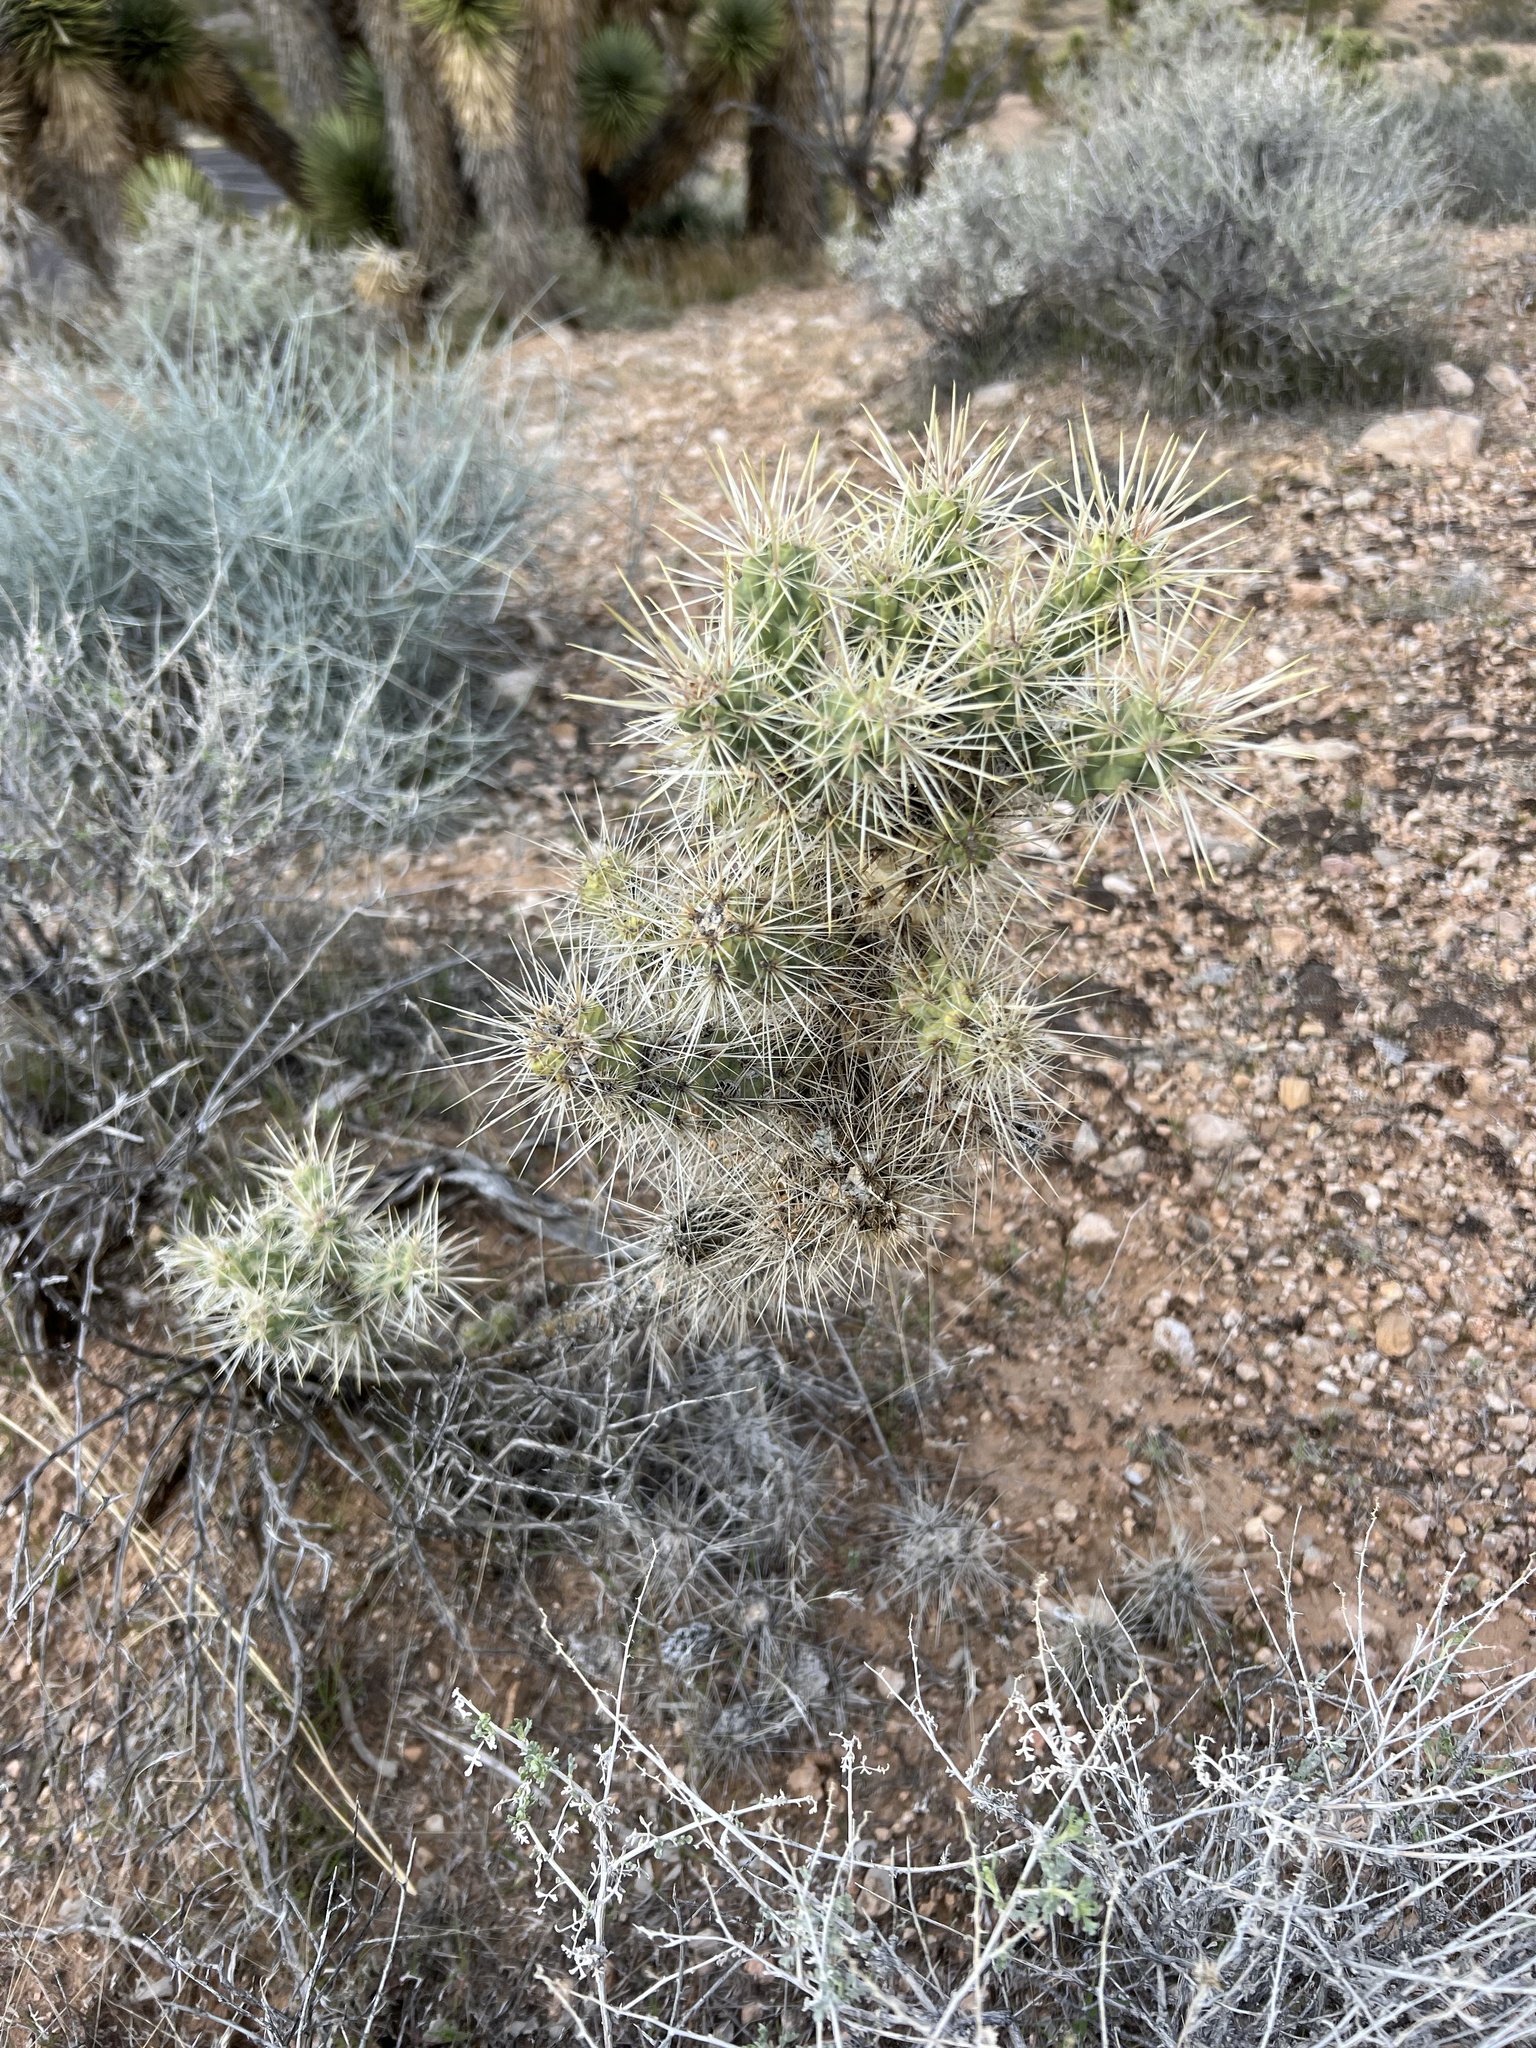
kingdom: Plantae
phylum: Tracheophyta
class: Magnoliopsida
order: Caryophyllales
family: Cactaceae
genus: Cylindropuntia
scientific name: Cylindropuntia echinocarpa
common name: Ground cholla
